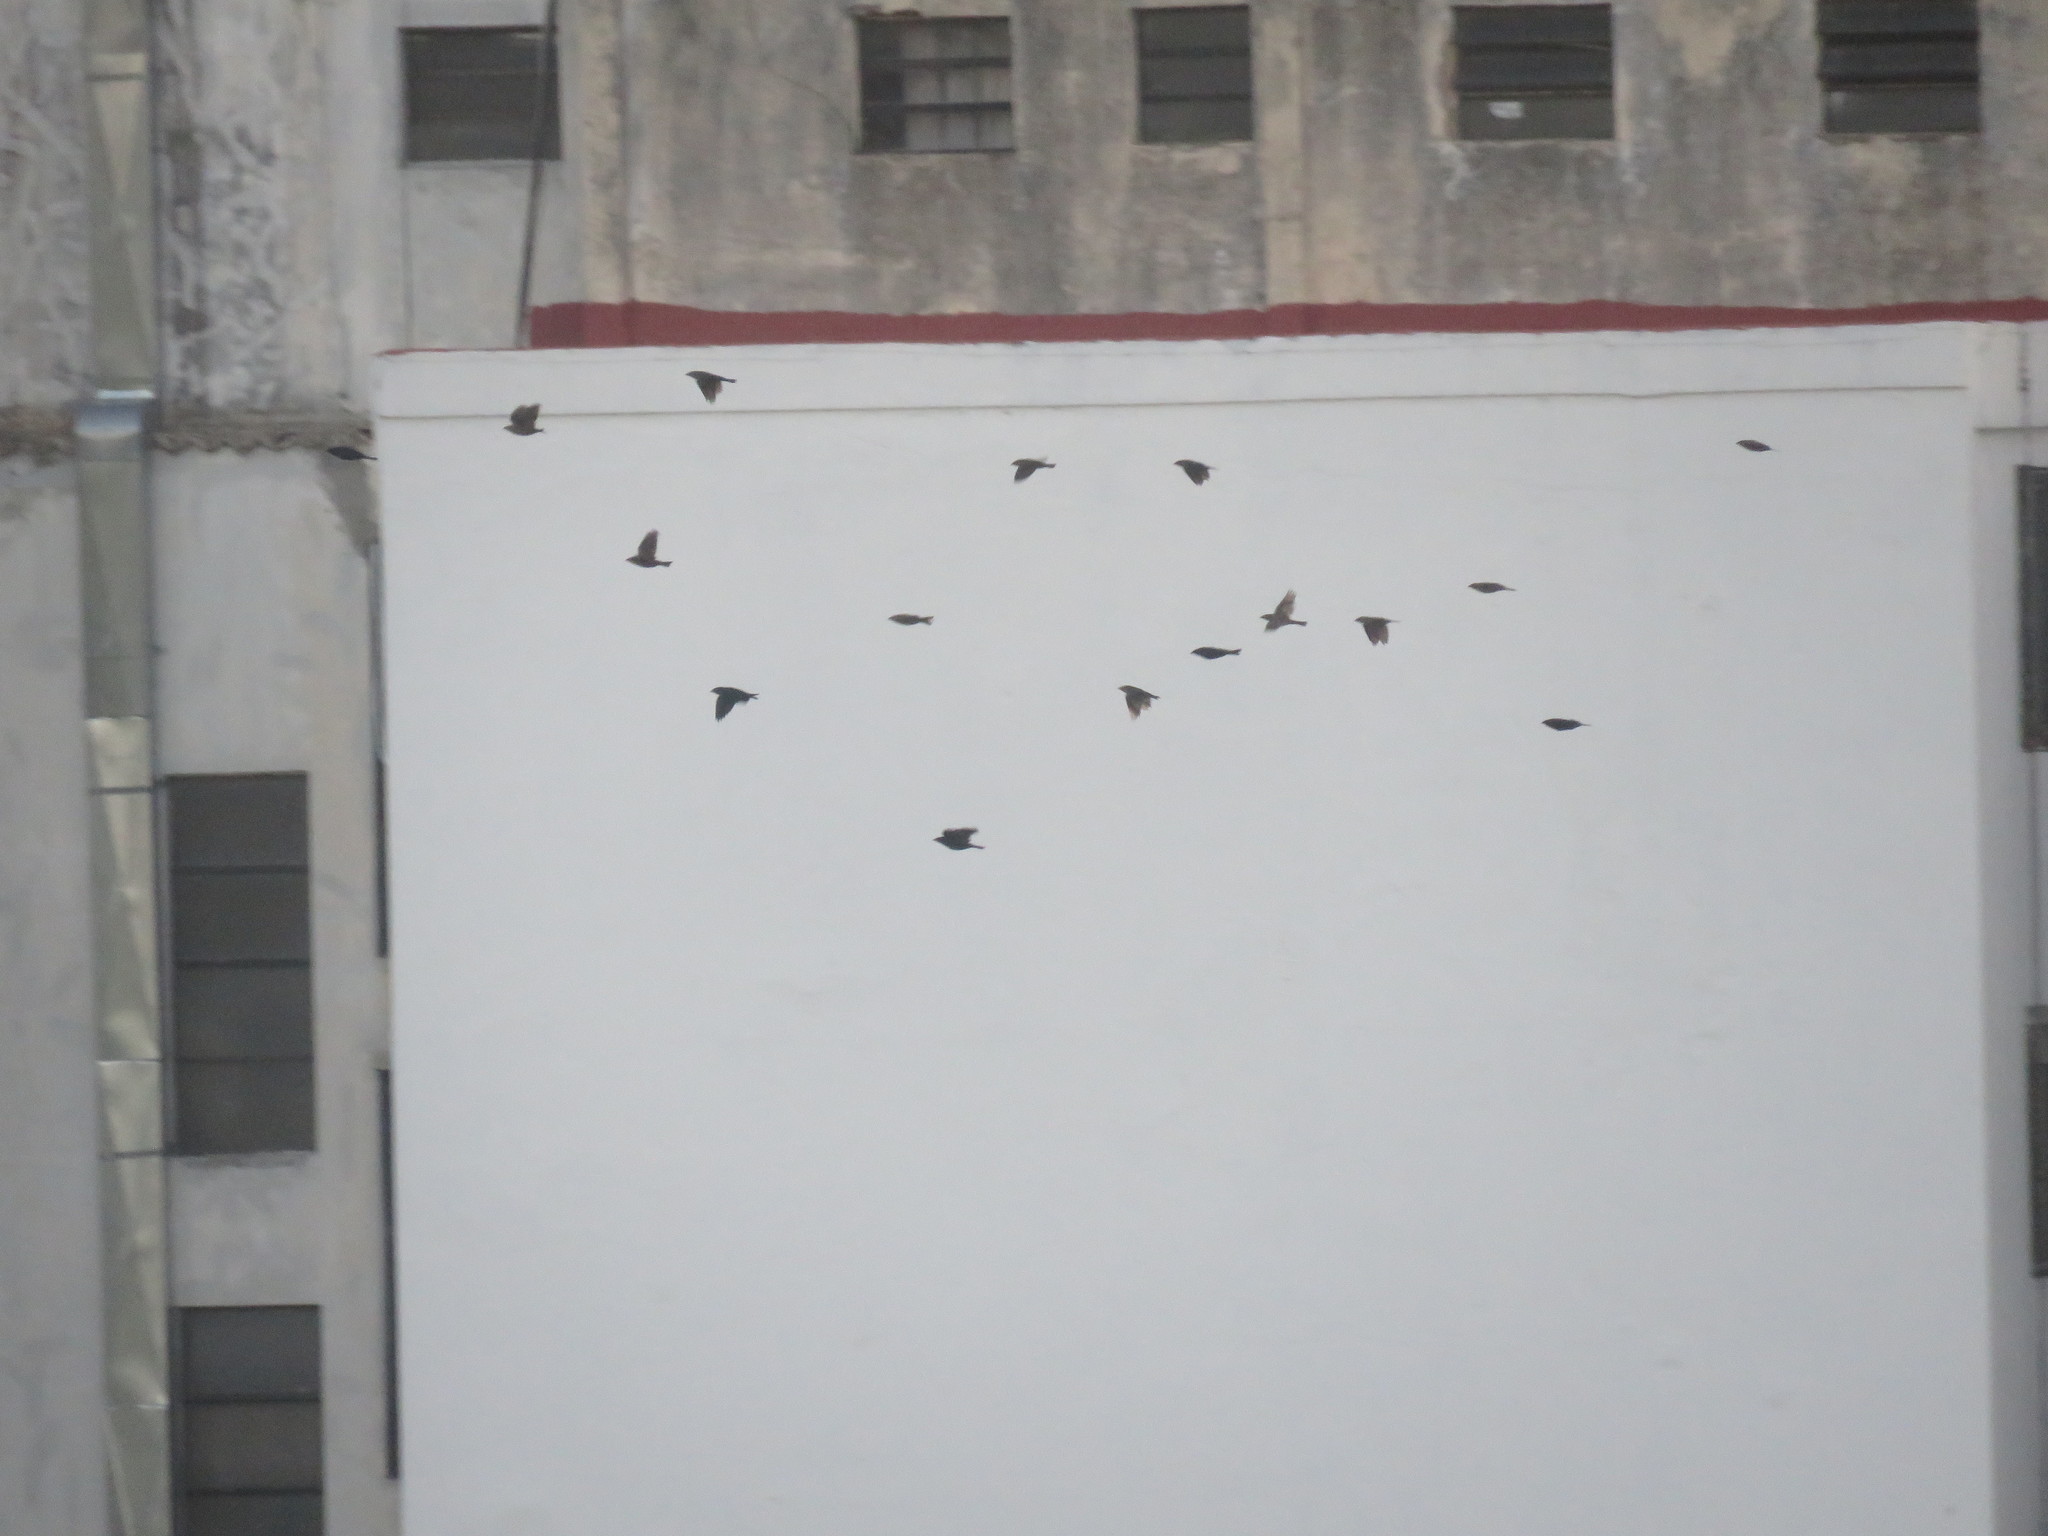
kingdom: Animalia
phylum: Chordata
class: Aves
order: Passeriformes
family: Icteridae
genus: Molothrus
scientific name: Molothrus bonariensis
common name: Shiny cowbird
